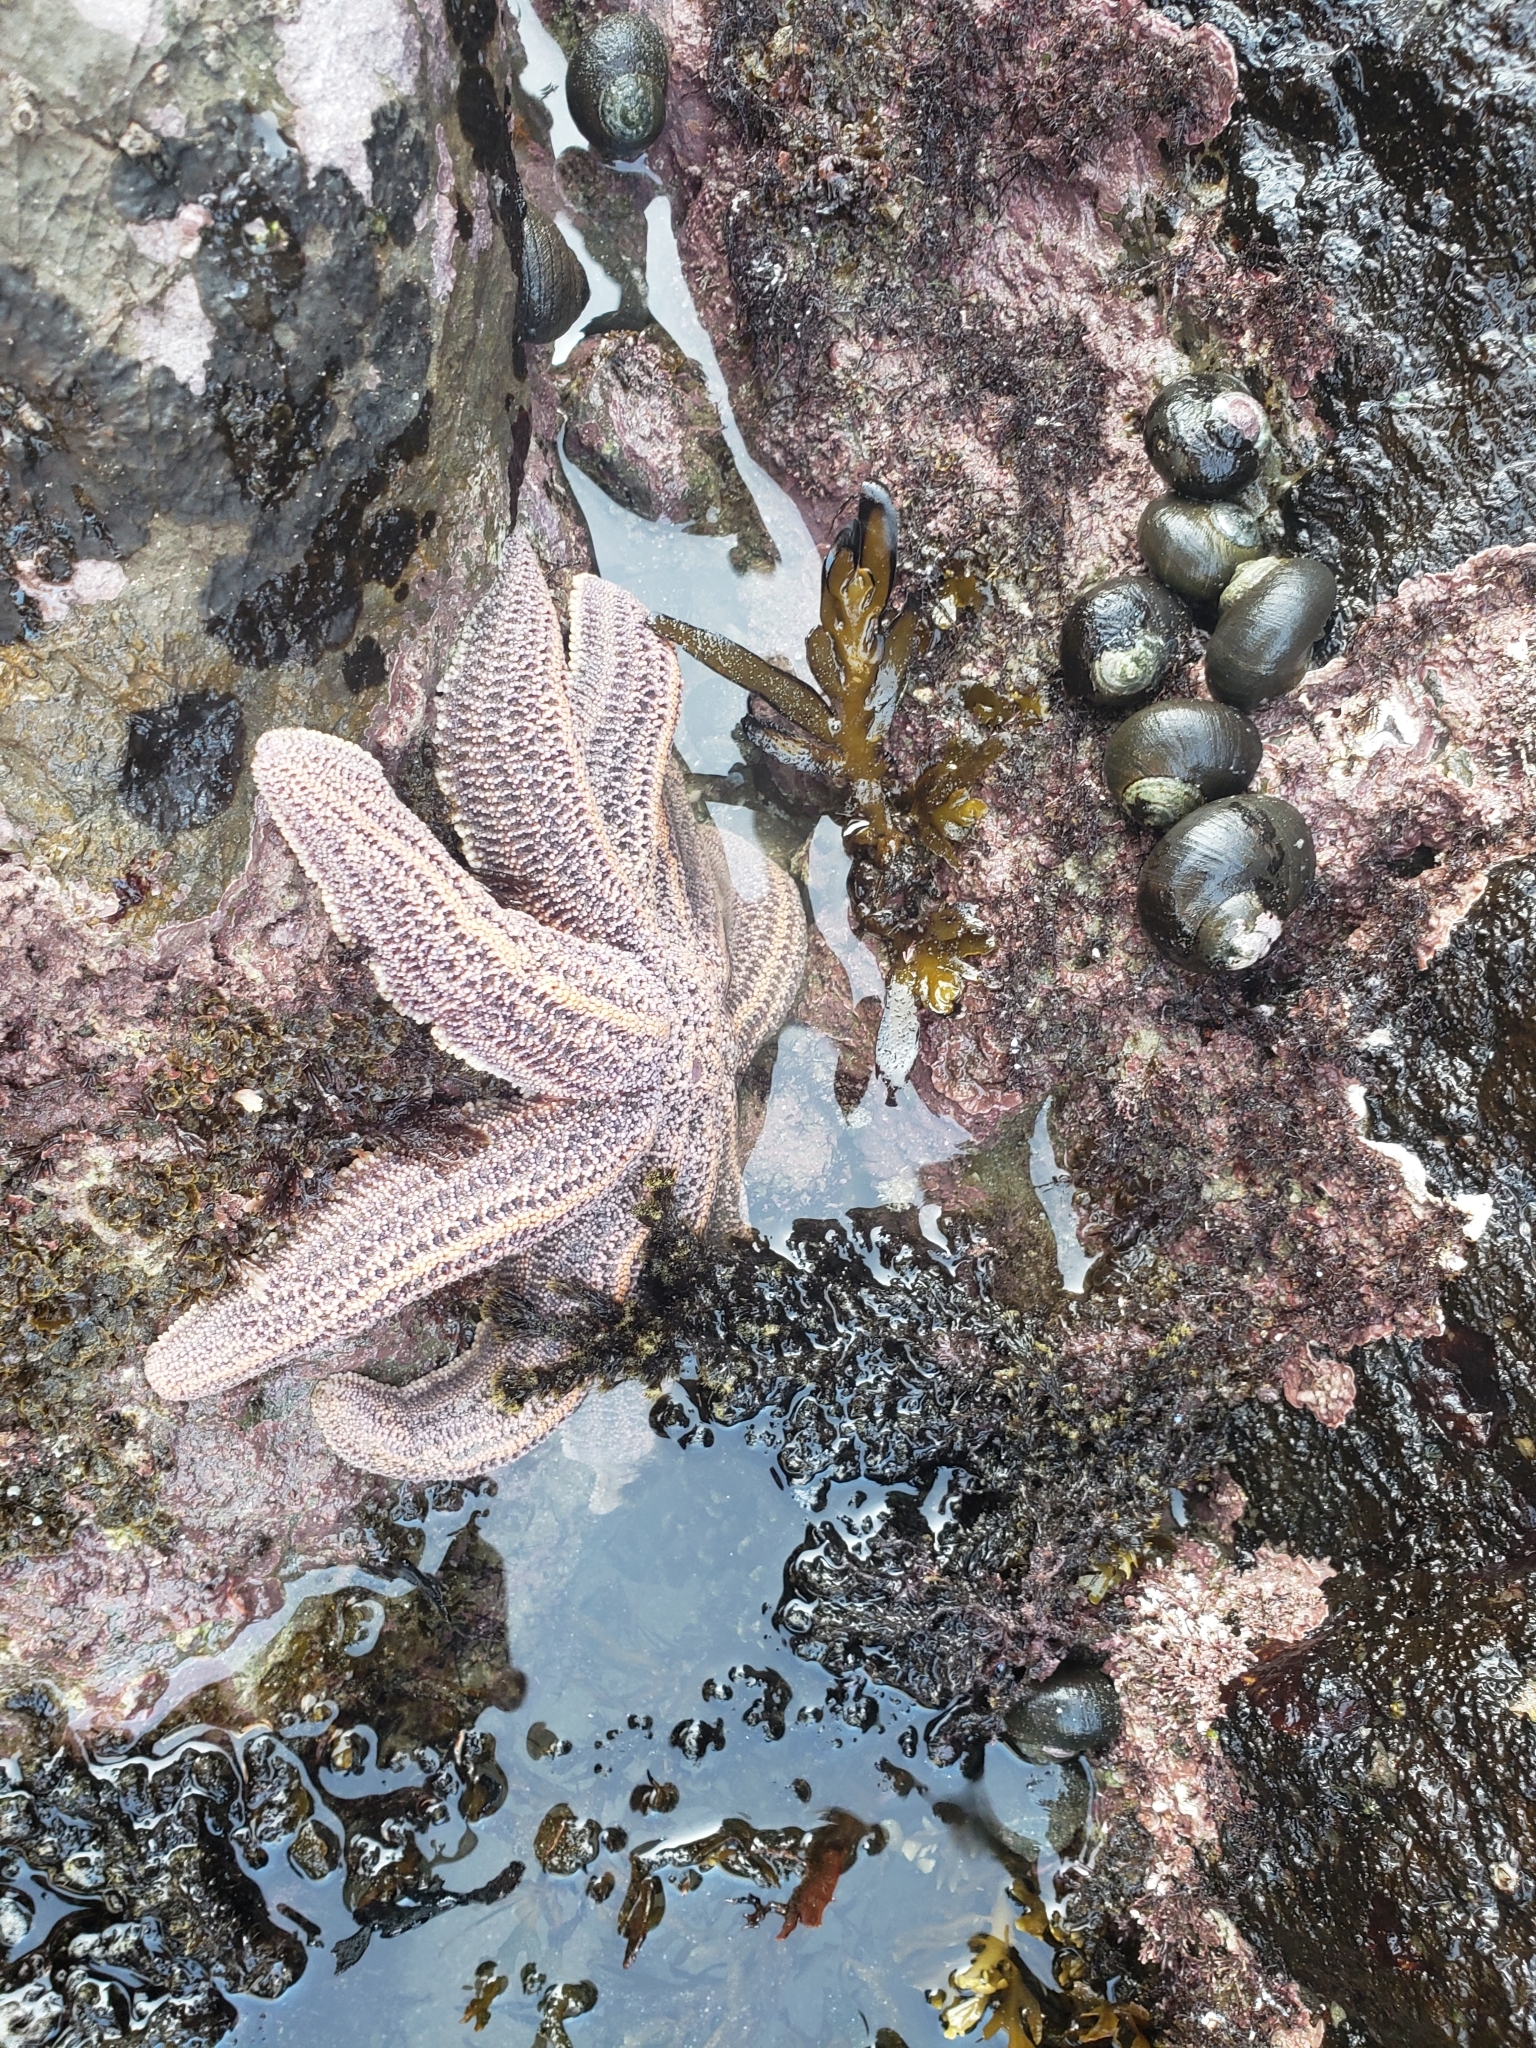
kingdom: Animalia
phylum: Echinodermata
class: Asteroidea
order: Forcipulatida
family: Stichasteridae
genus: Stichaster
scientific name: Stichaster australis
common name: Reef starfish
